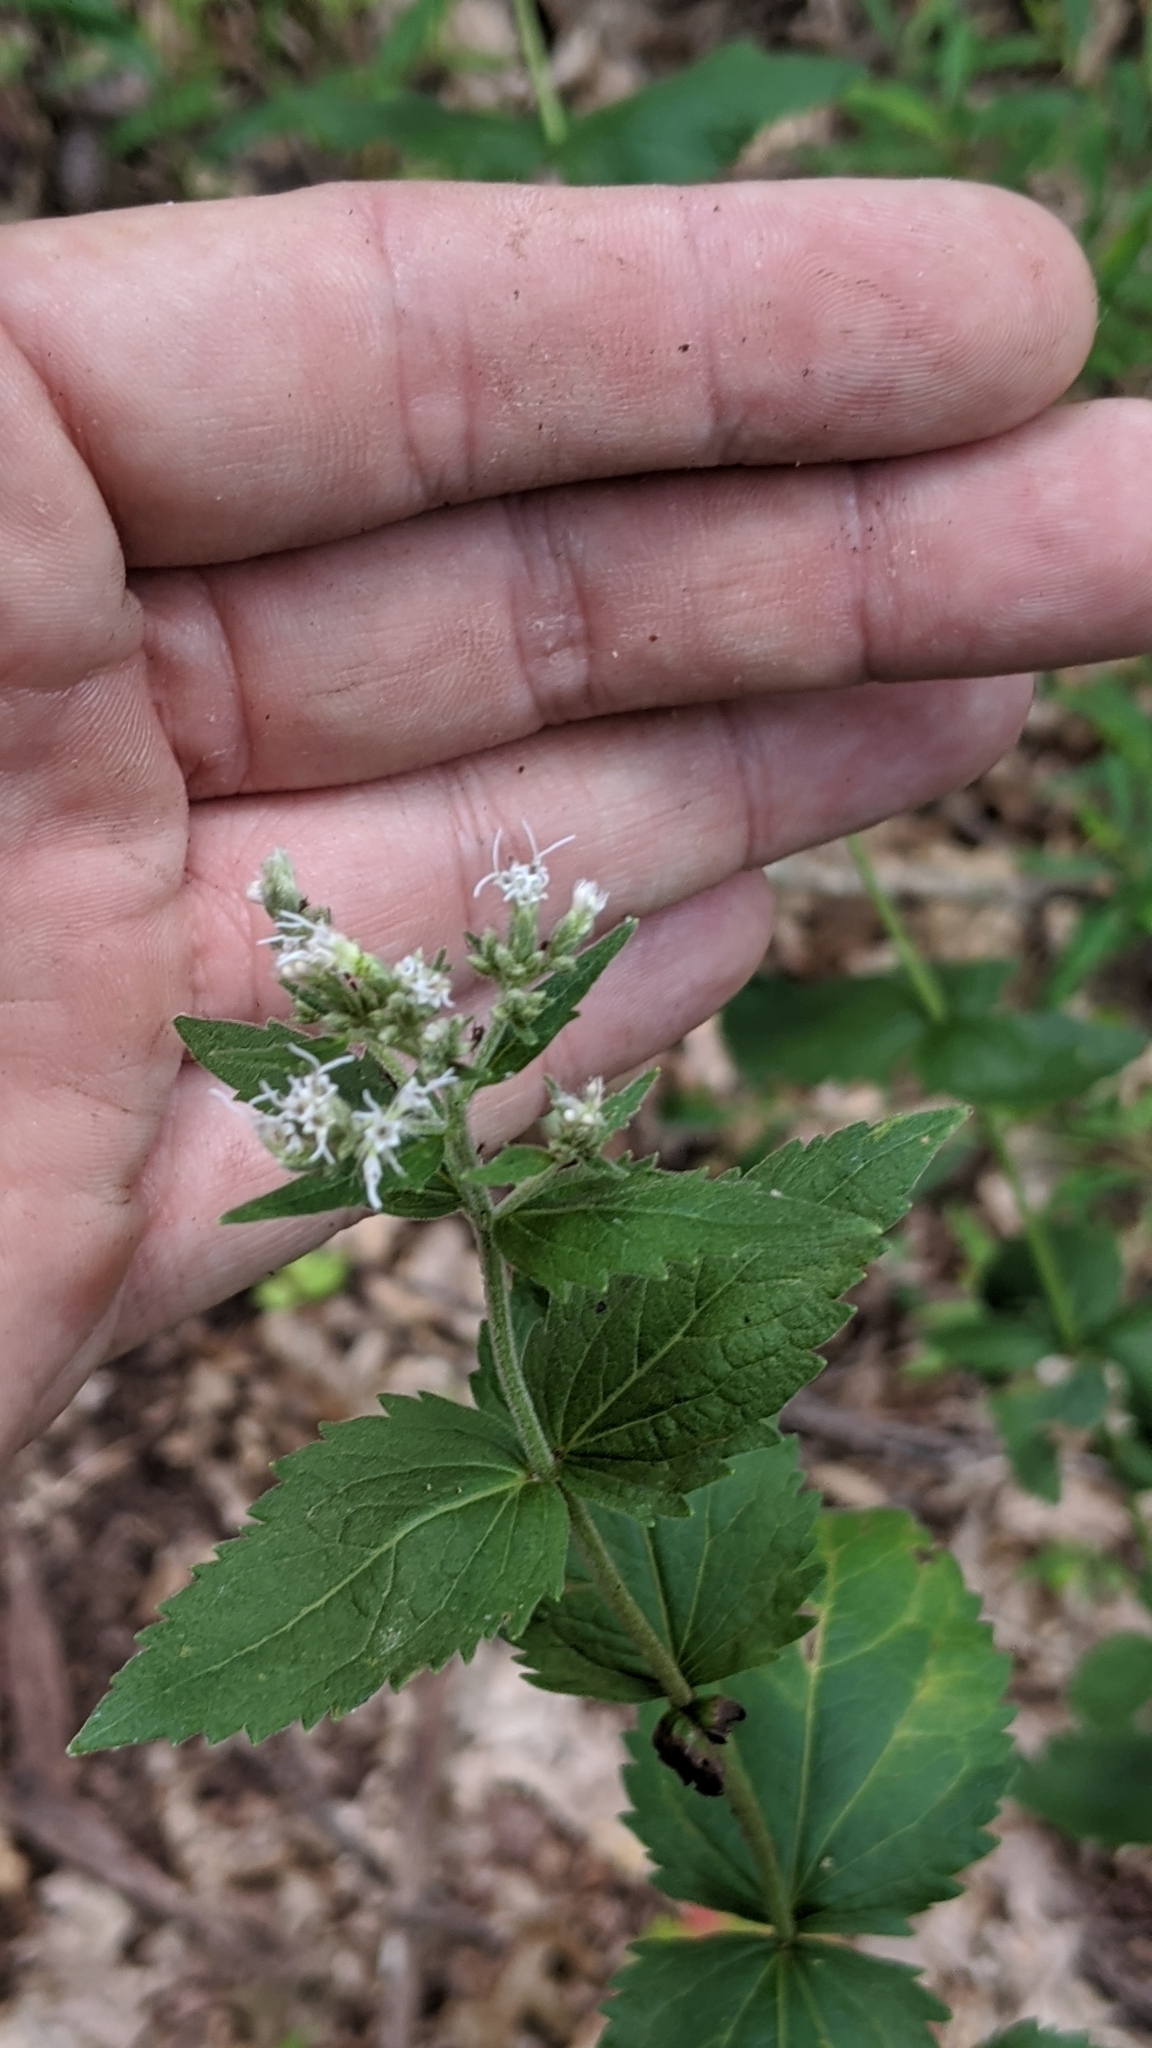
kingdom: Plantae
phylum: Tracheophyta
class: Magnoliopsida
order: Asterales
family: Asteraceae
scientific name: Asteraceae
